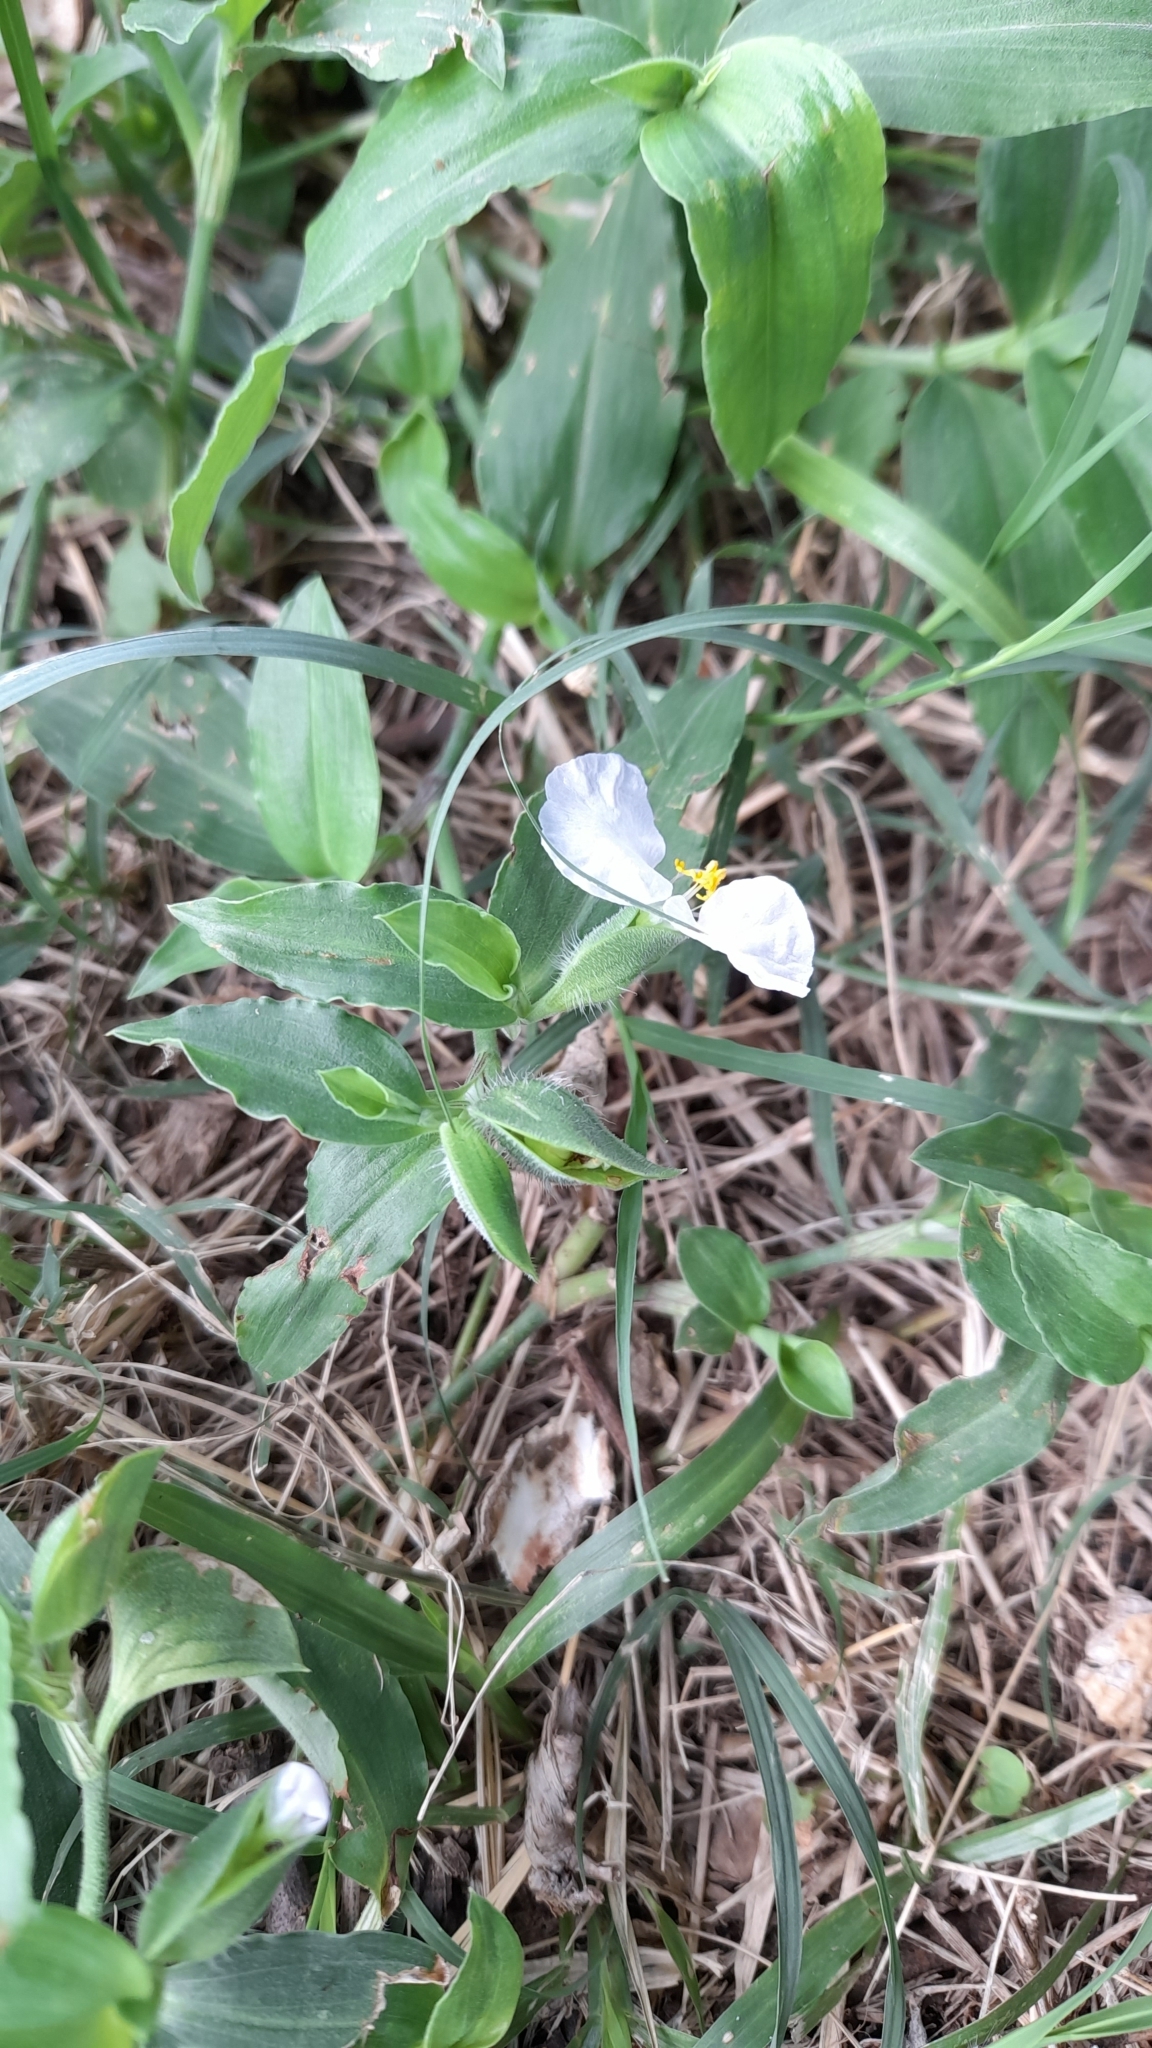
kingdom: Plantae
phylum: Tracheophyta
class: Liliopsida
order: Commelinales
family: Commelinaceae
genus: Commelina
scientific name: Commelina erecta
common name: Blousel blommetjie
